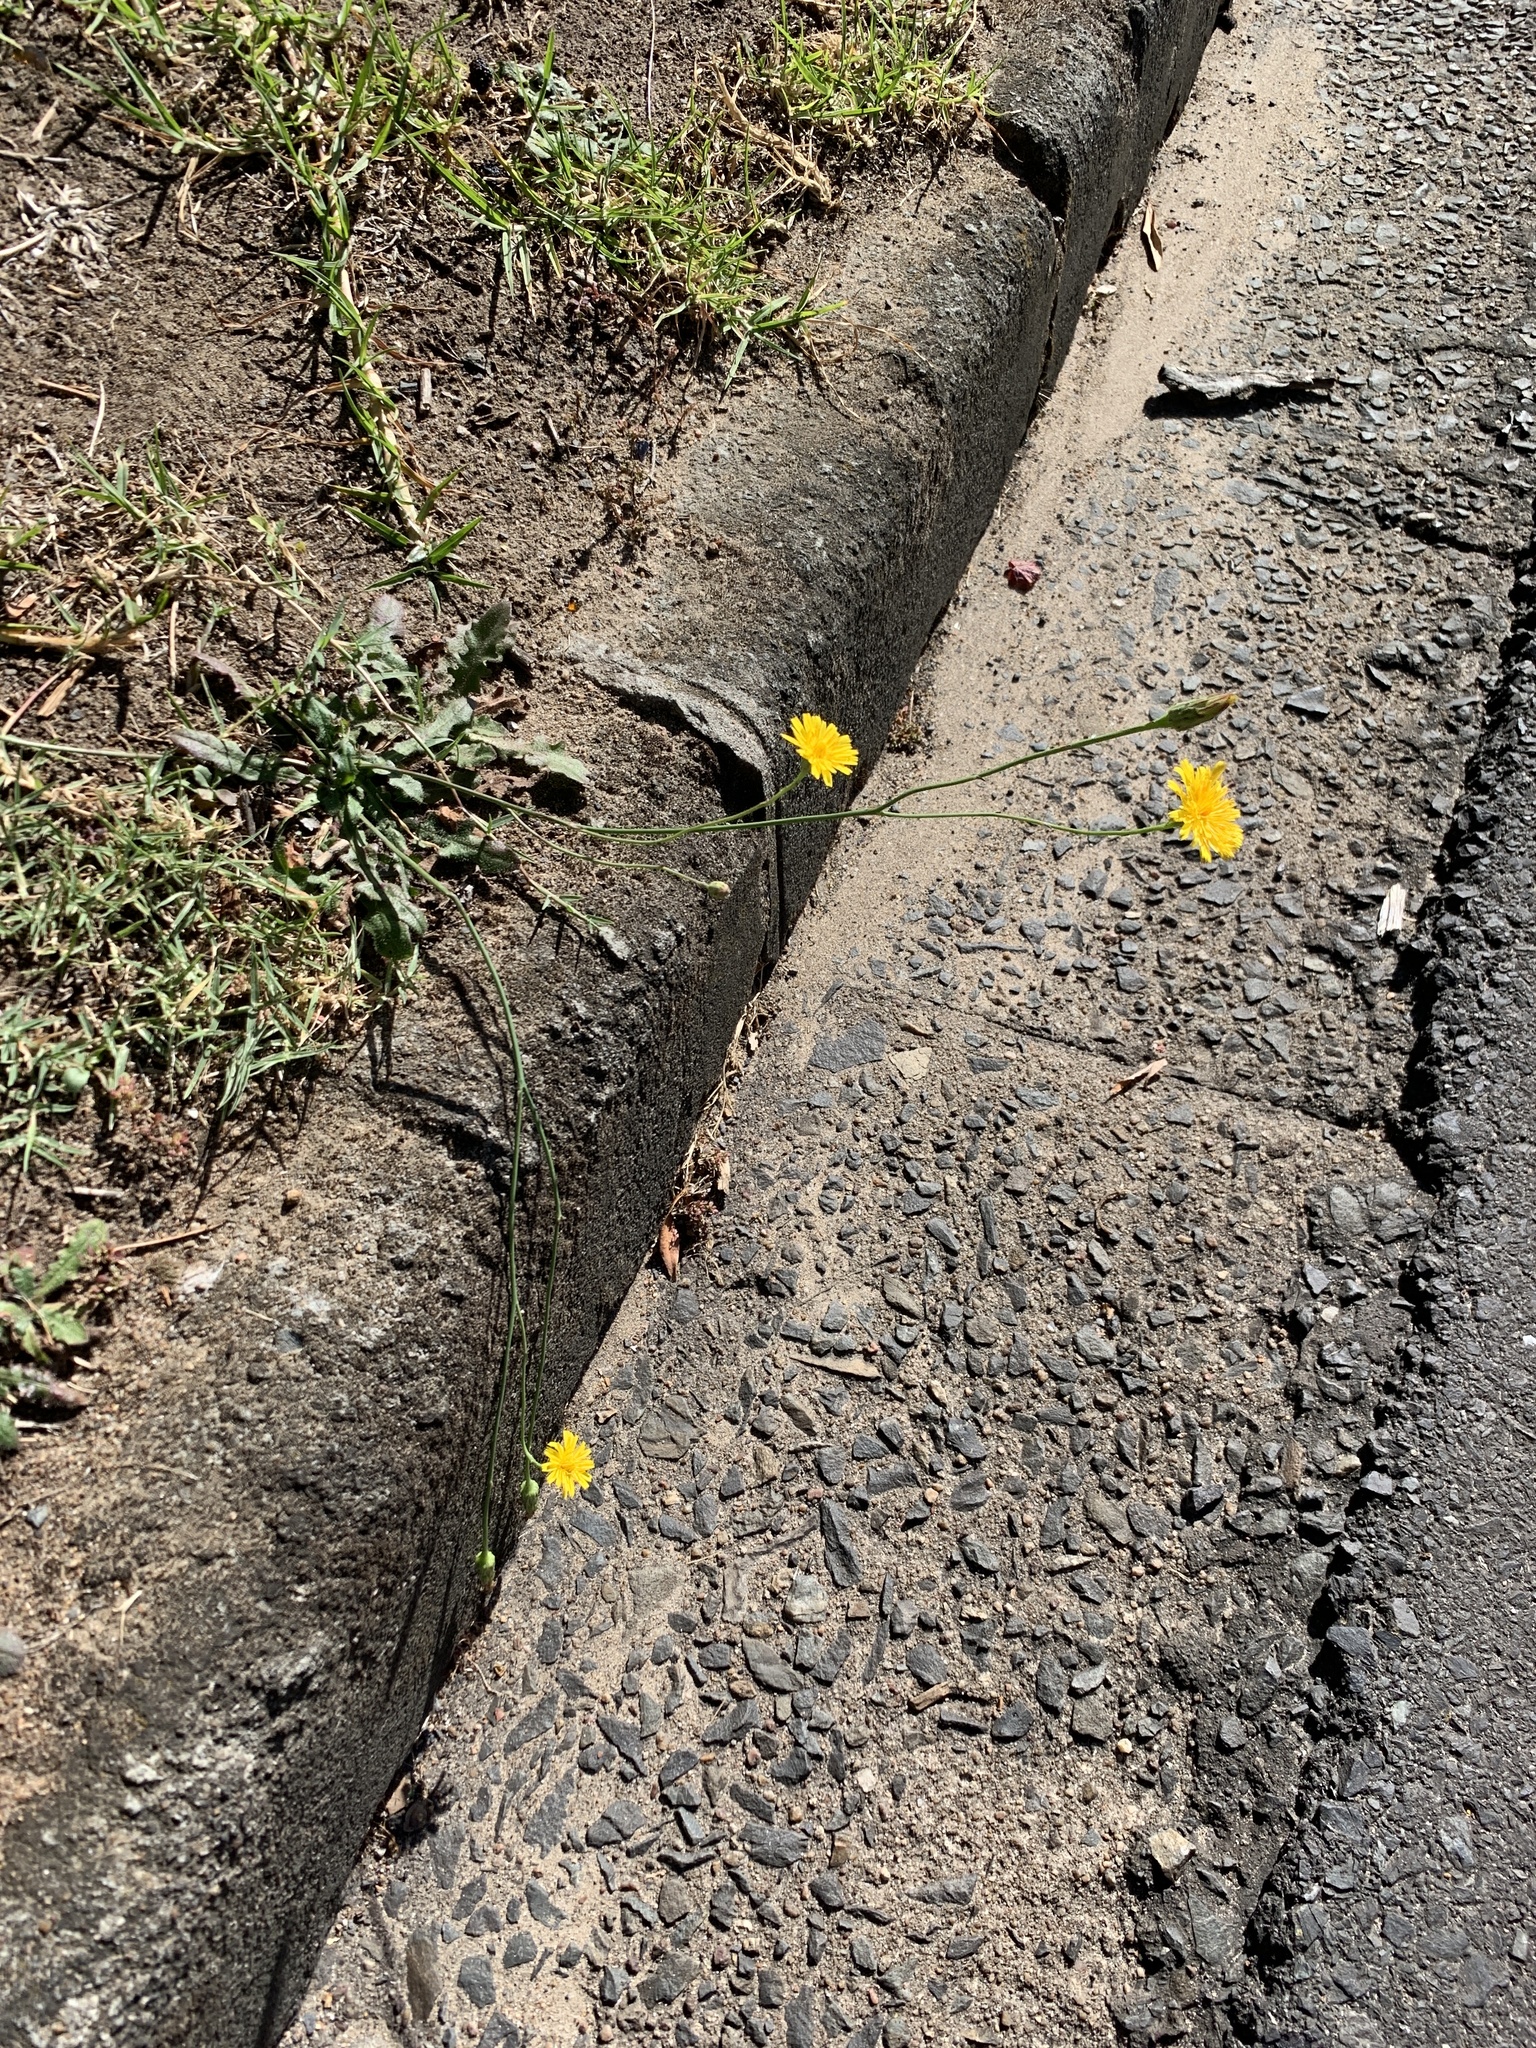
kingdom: Plantae
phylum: Tracheophyta
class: Magnoliopsida
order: Asterales
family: Asteraceae
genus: Hypochaeris
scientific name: Hypochaeris radicata
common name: Flatweed
